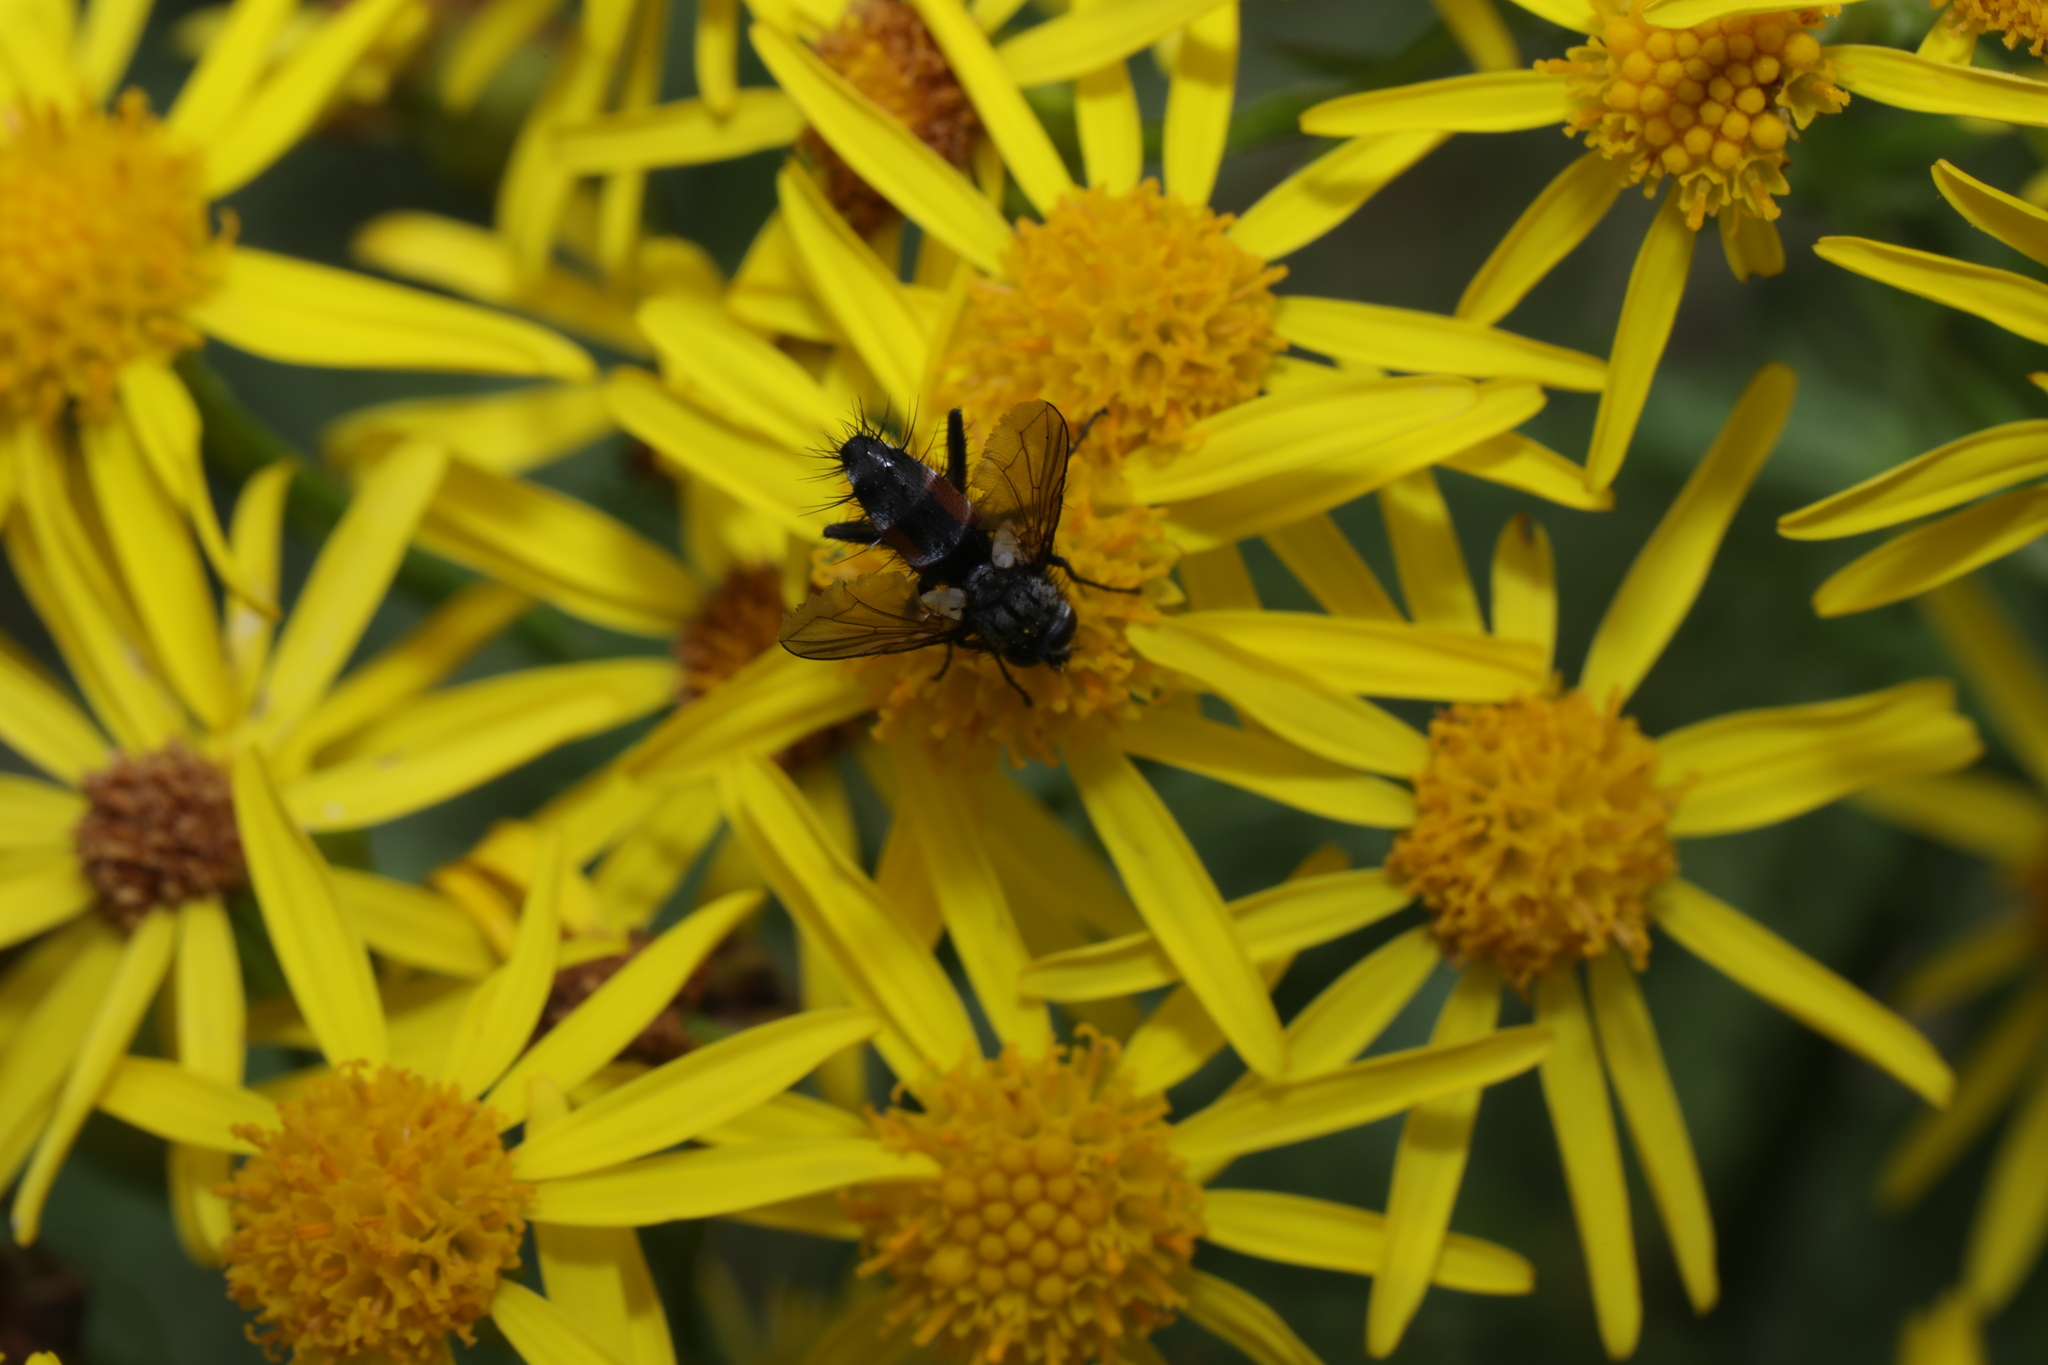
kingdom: Animalia
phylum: Arthropoda
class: Insecta
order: Diptera
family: Tachinidae
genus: Eriothrix
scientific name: Eriothrix rufomaculatus
